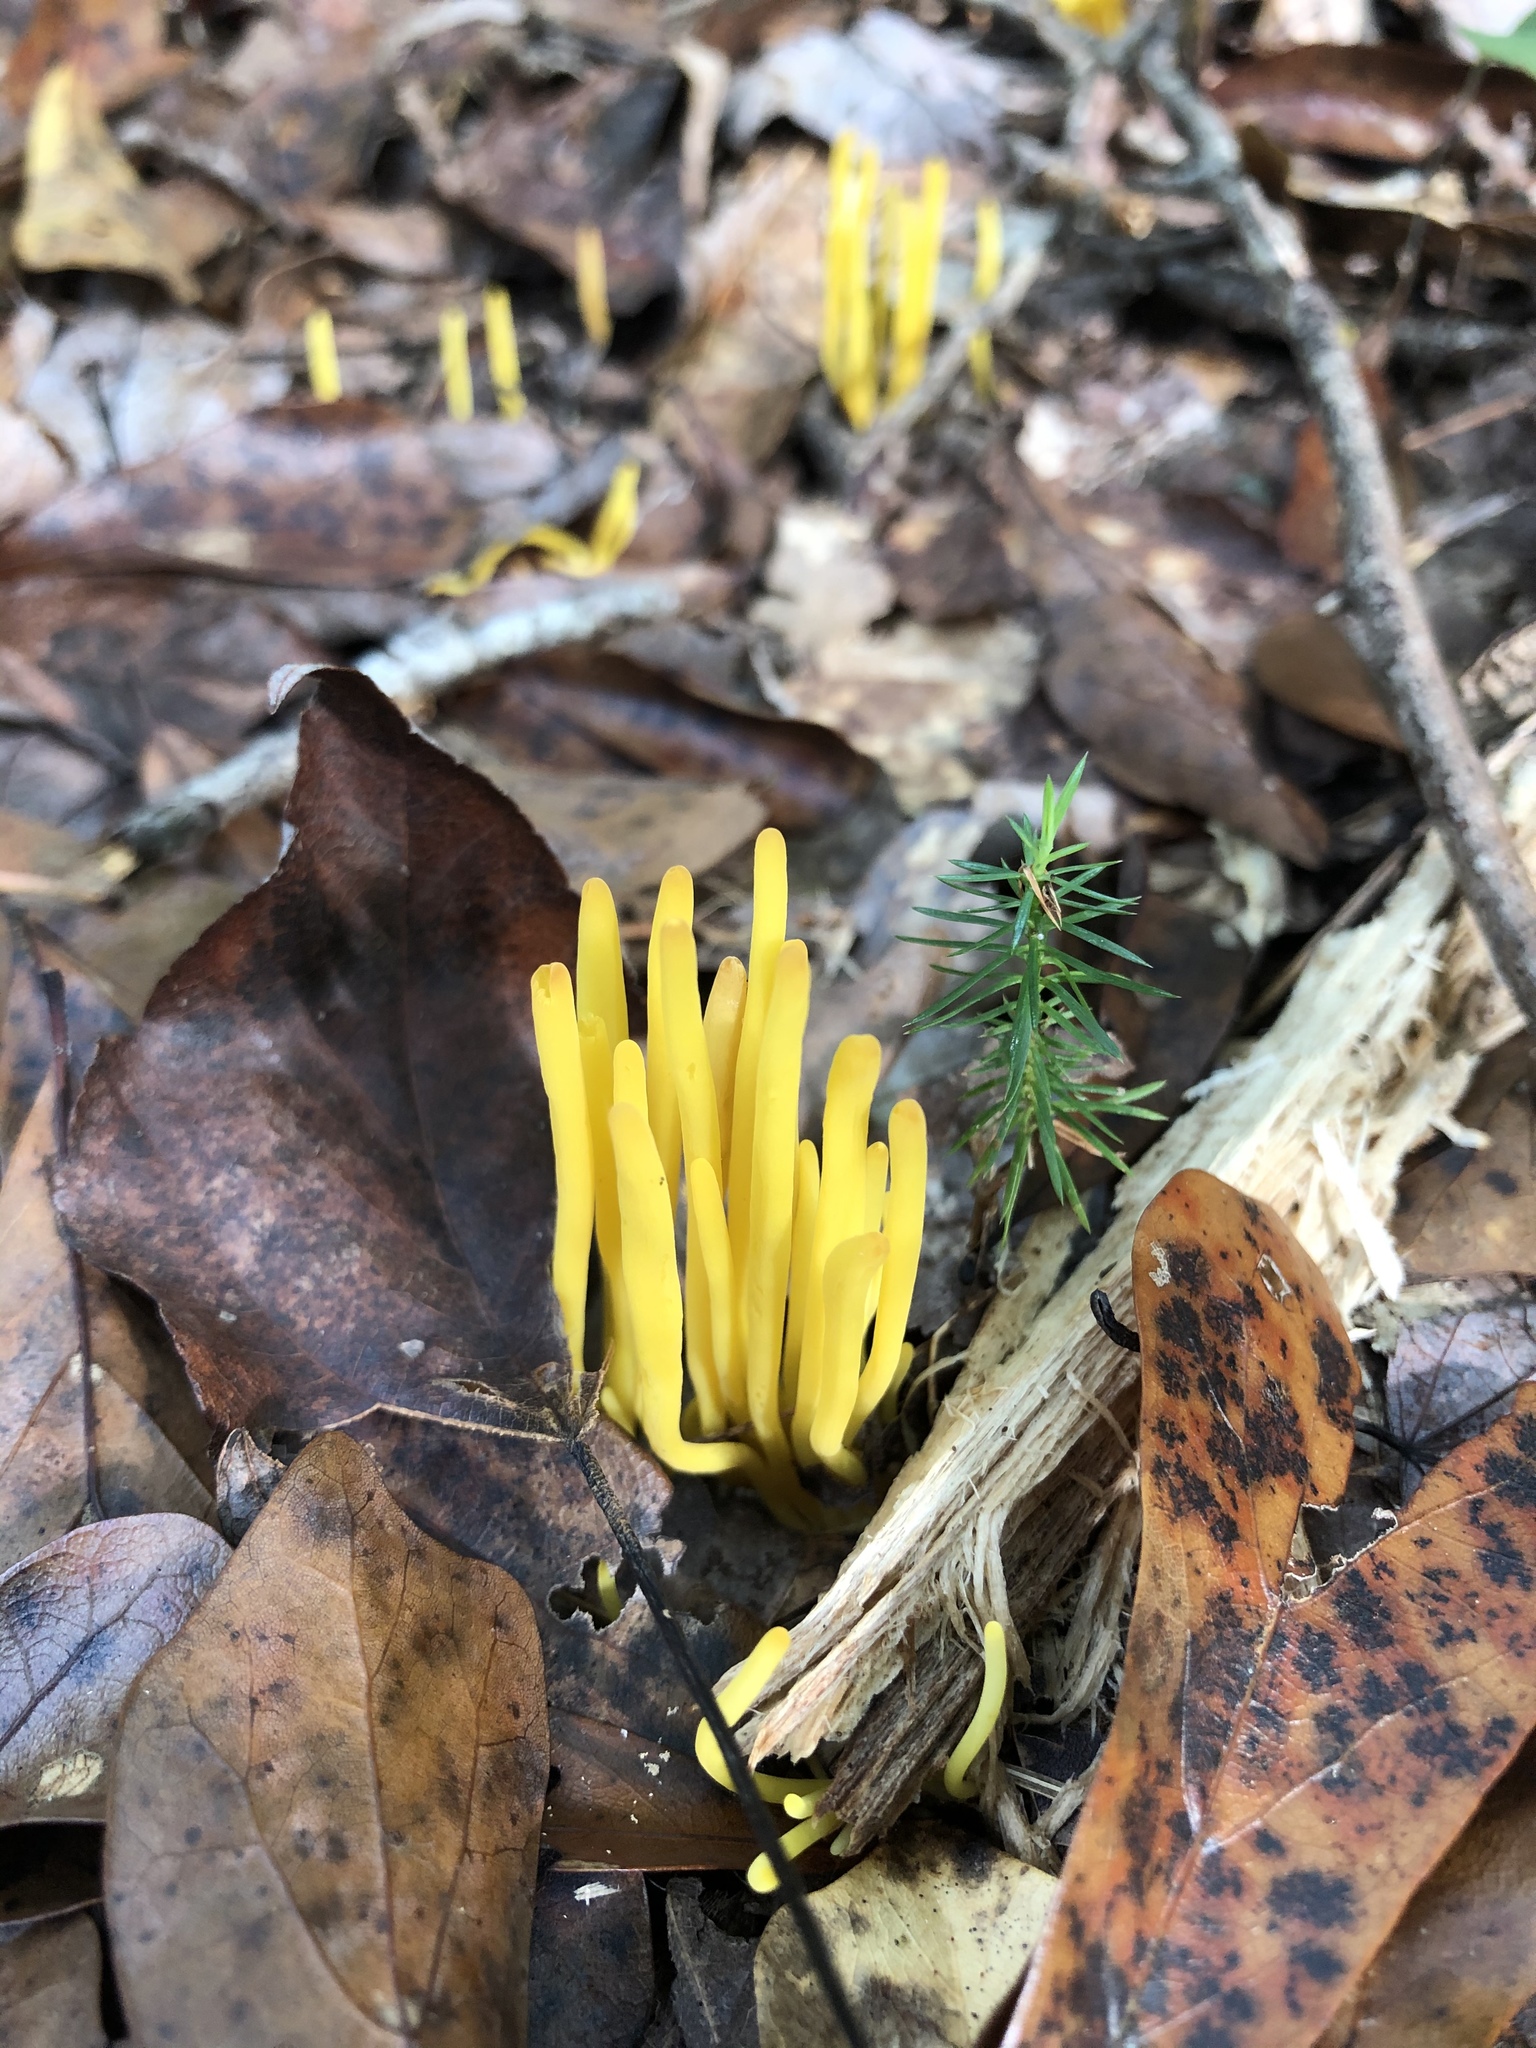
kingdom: Fungi
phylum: Basidiomycota
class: Agaricomycetes
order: Agaricales
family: Clavariaceae
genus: Clavulinopsis
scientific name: Clavulinopsis fusiformis
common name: Golden spindles
